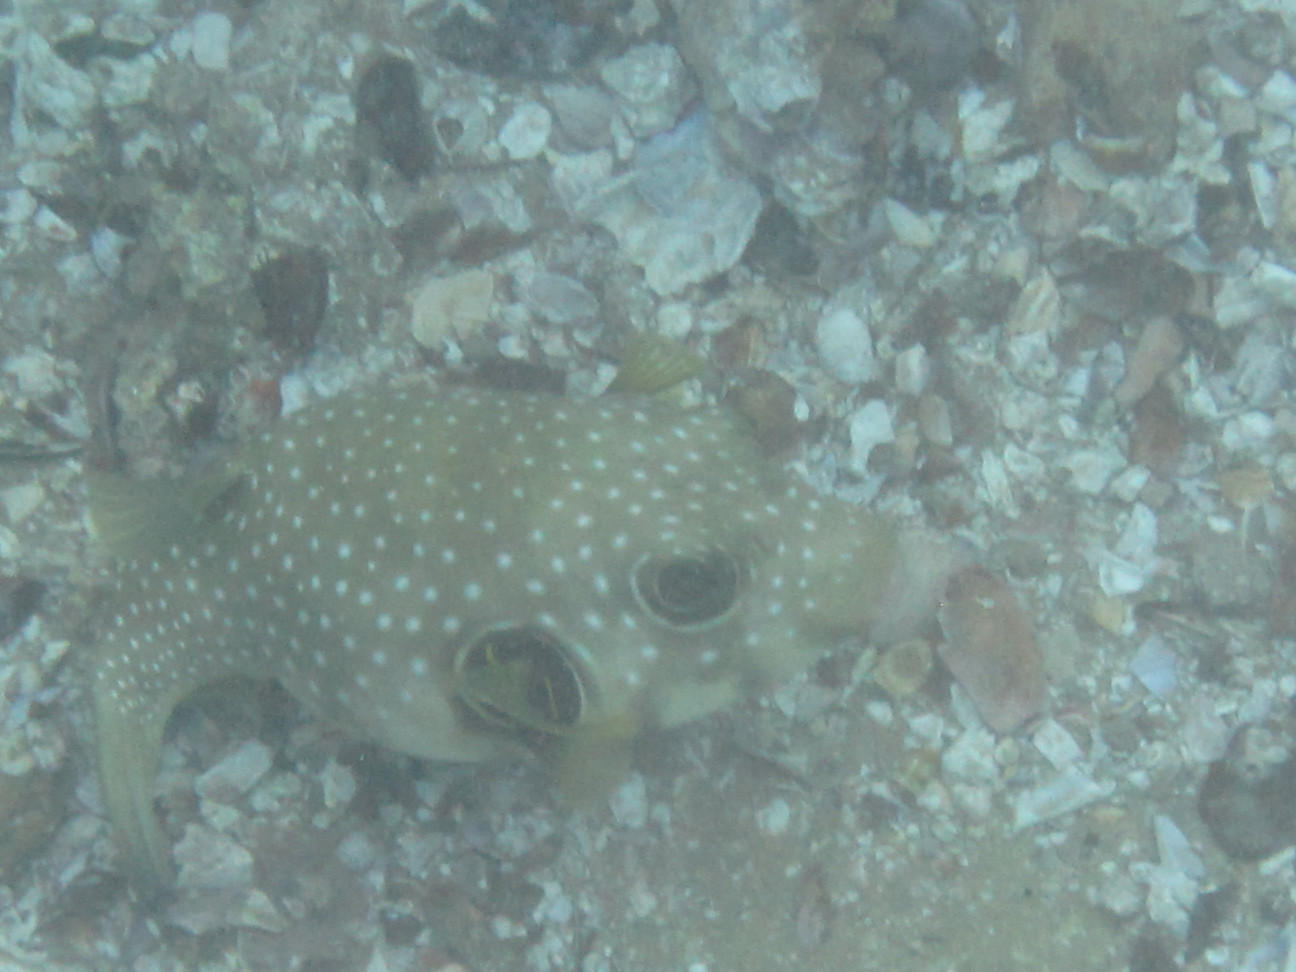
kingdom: Animalia
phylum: Chordata
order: Tetraodontiformes
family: Tetraodontidae
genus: Arothron
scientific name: Arothron hispidus
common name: Stripebelly puffer
